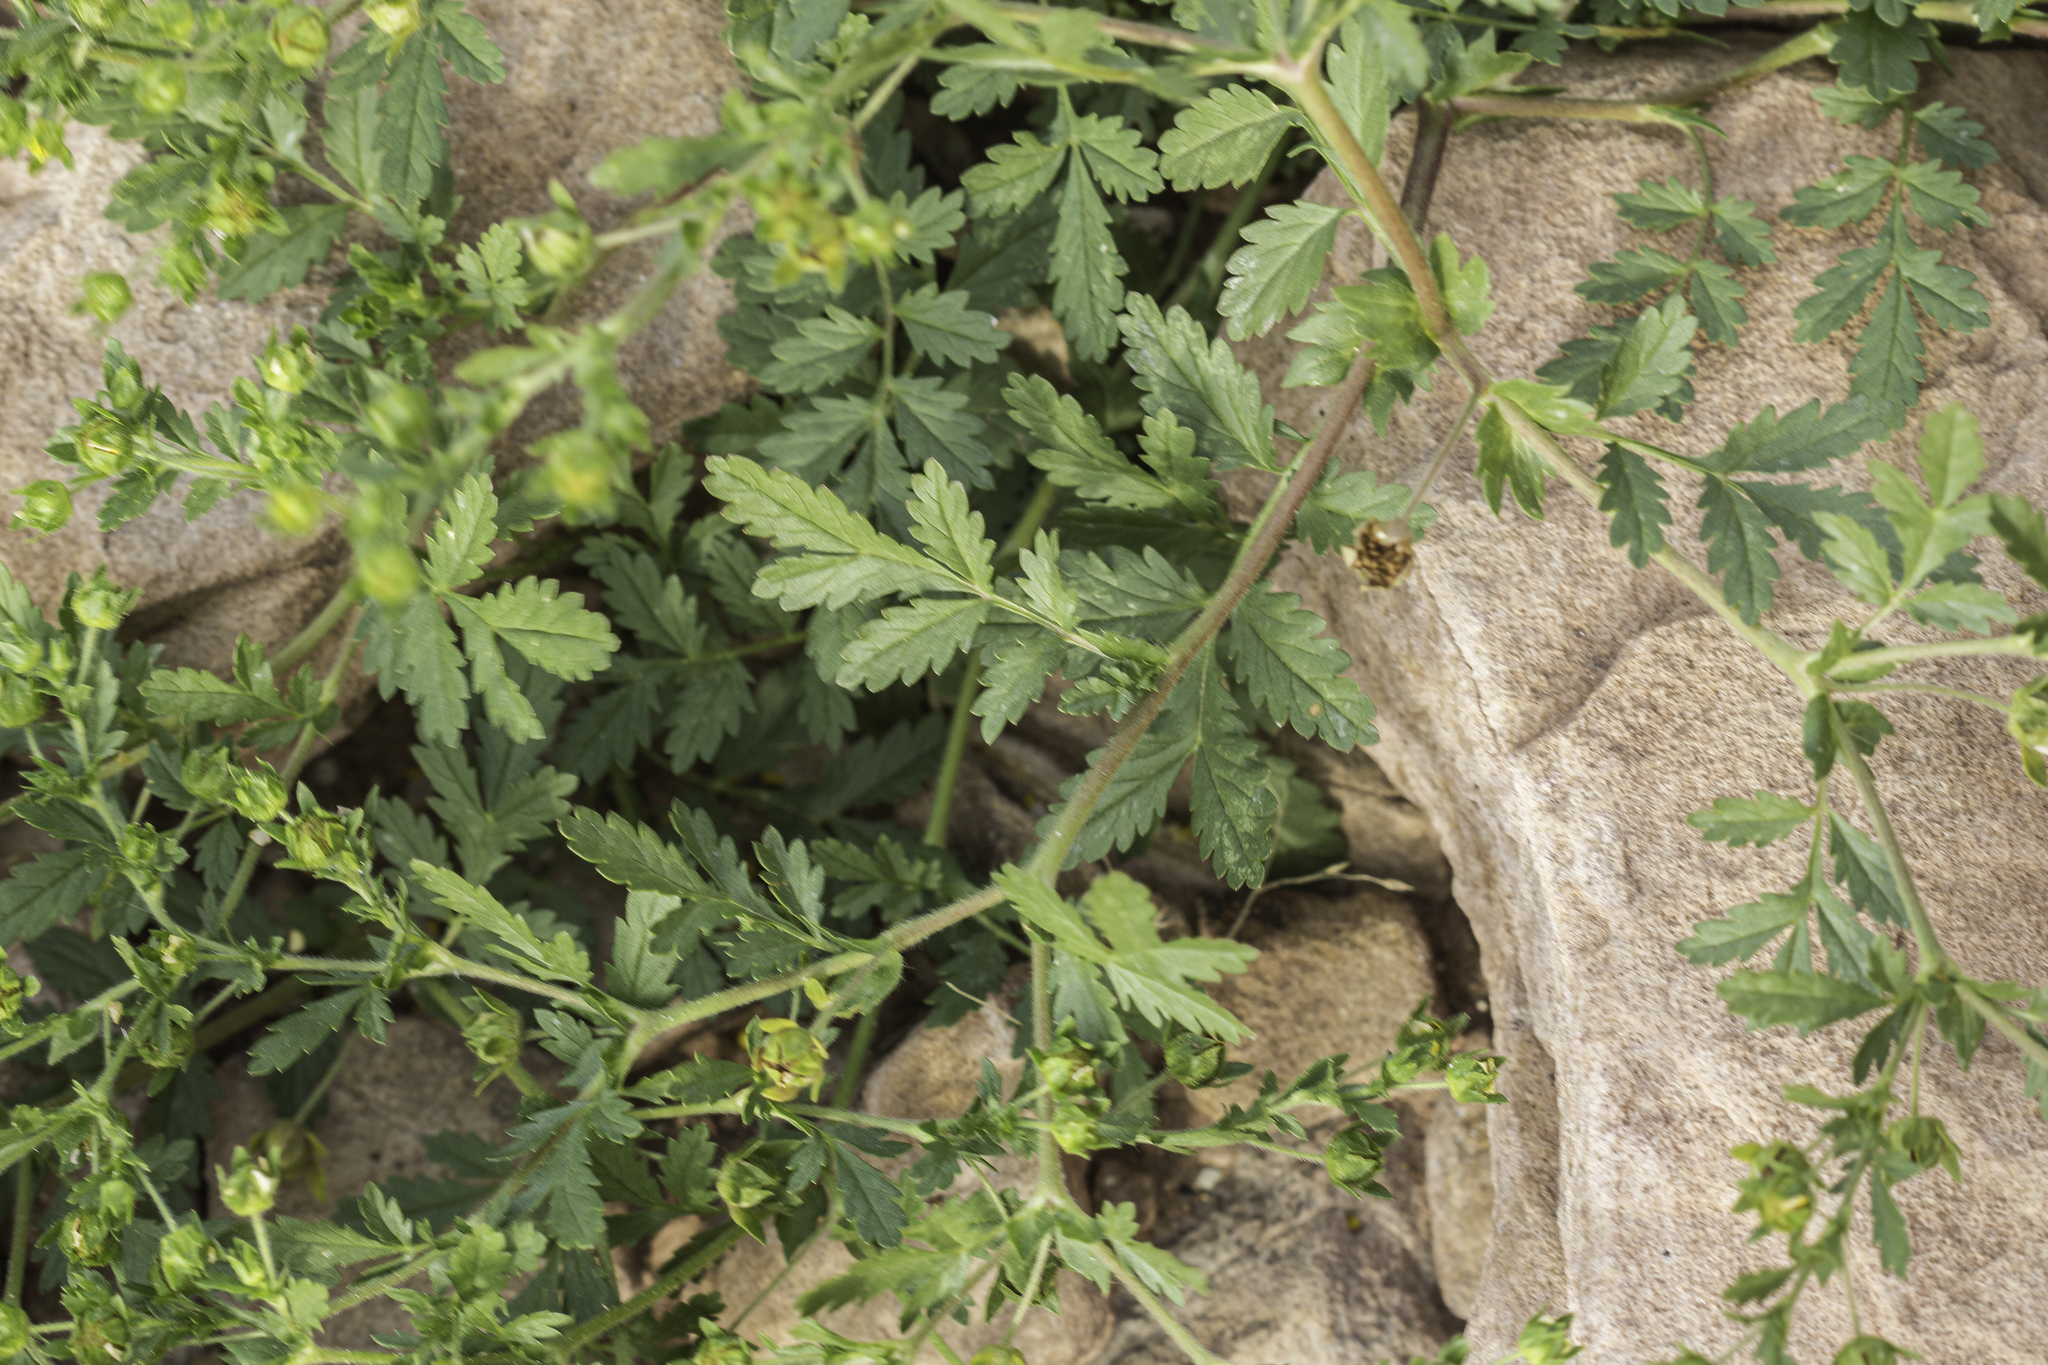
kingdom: Plantae
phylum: Tracheophyta
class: Magnoliopsida
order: Rosales
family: Rosaceae
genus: Potentilla
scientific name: Potentilla supina
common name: Prostrate cinquefoil
